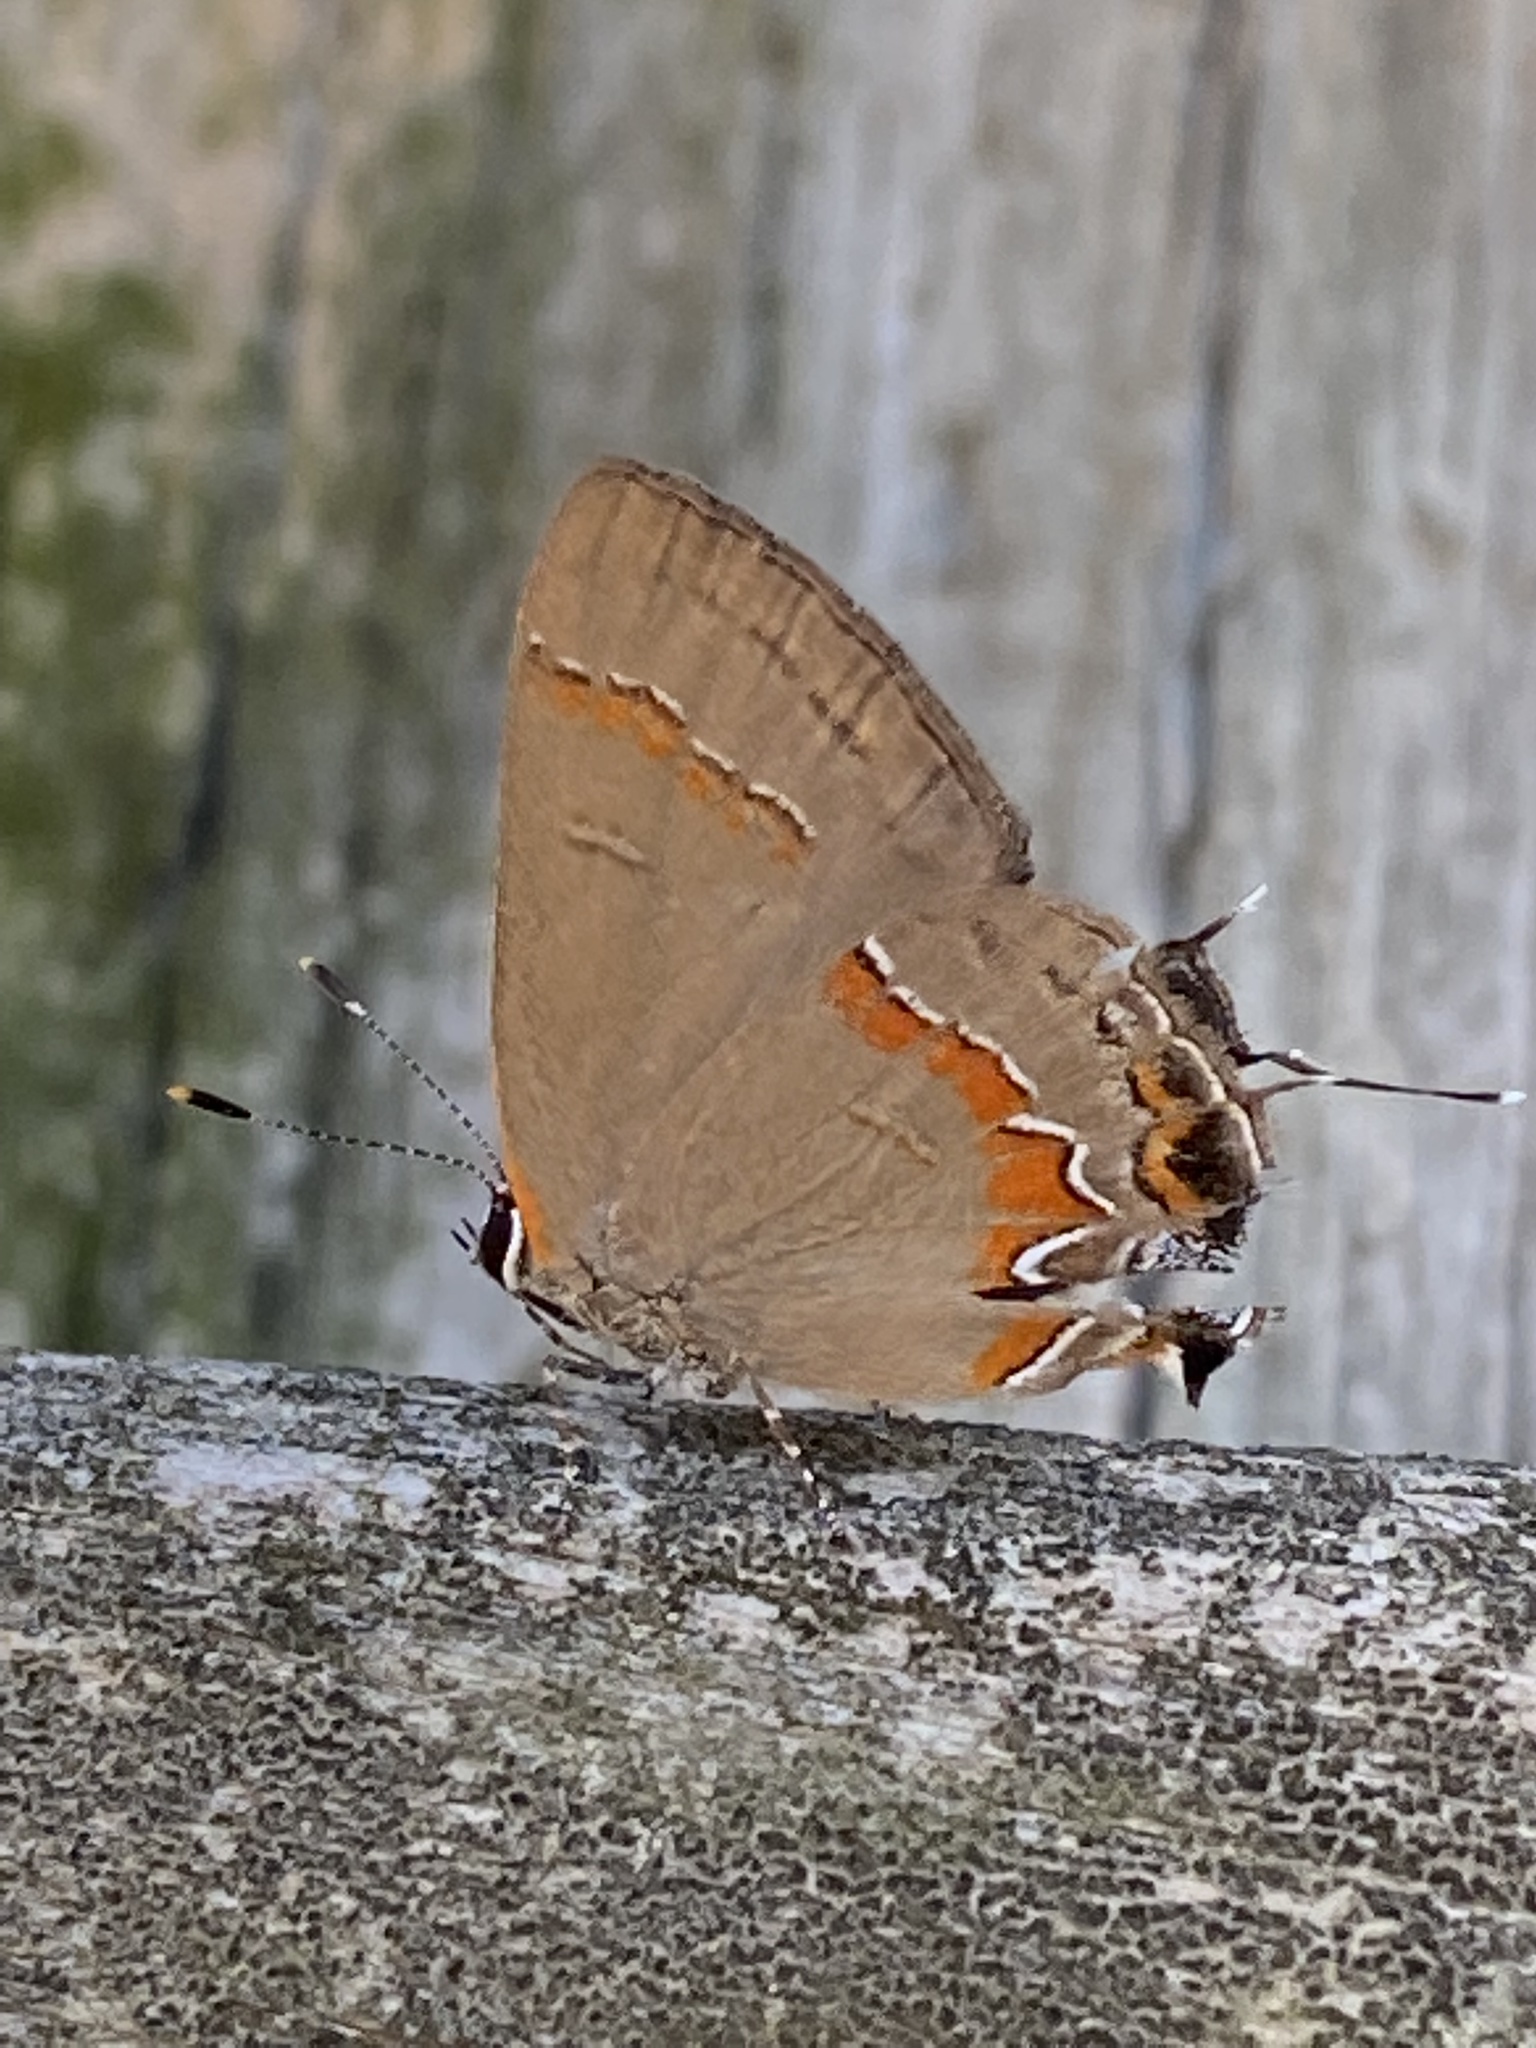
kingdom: Animalia
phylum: Arthropoda
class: Insecta
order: Lepidoptera
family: Lycaenidae
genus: Calycopis
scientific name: Calycopis cecrops
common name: Red-banded hairstreak
